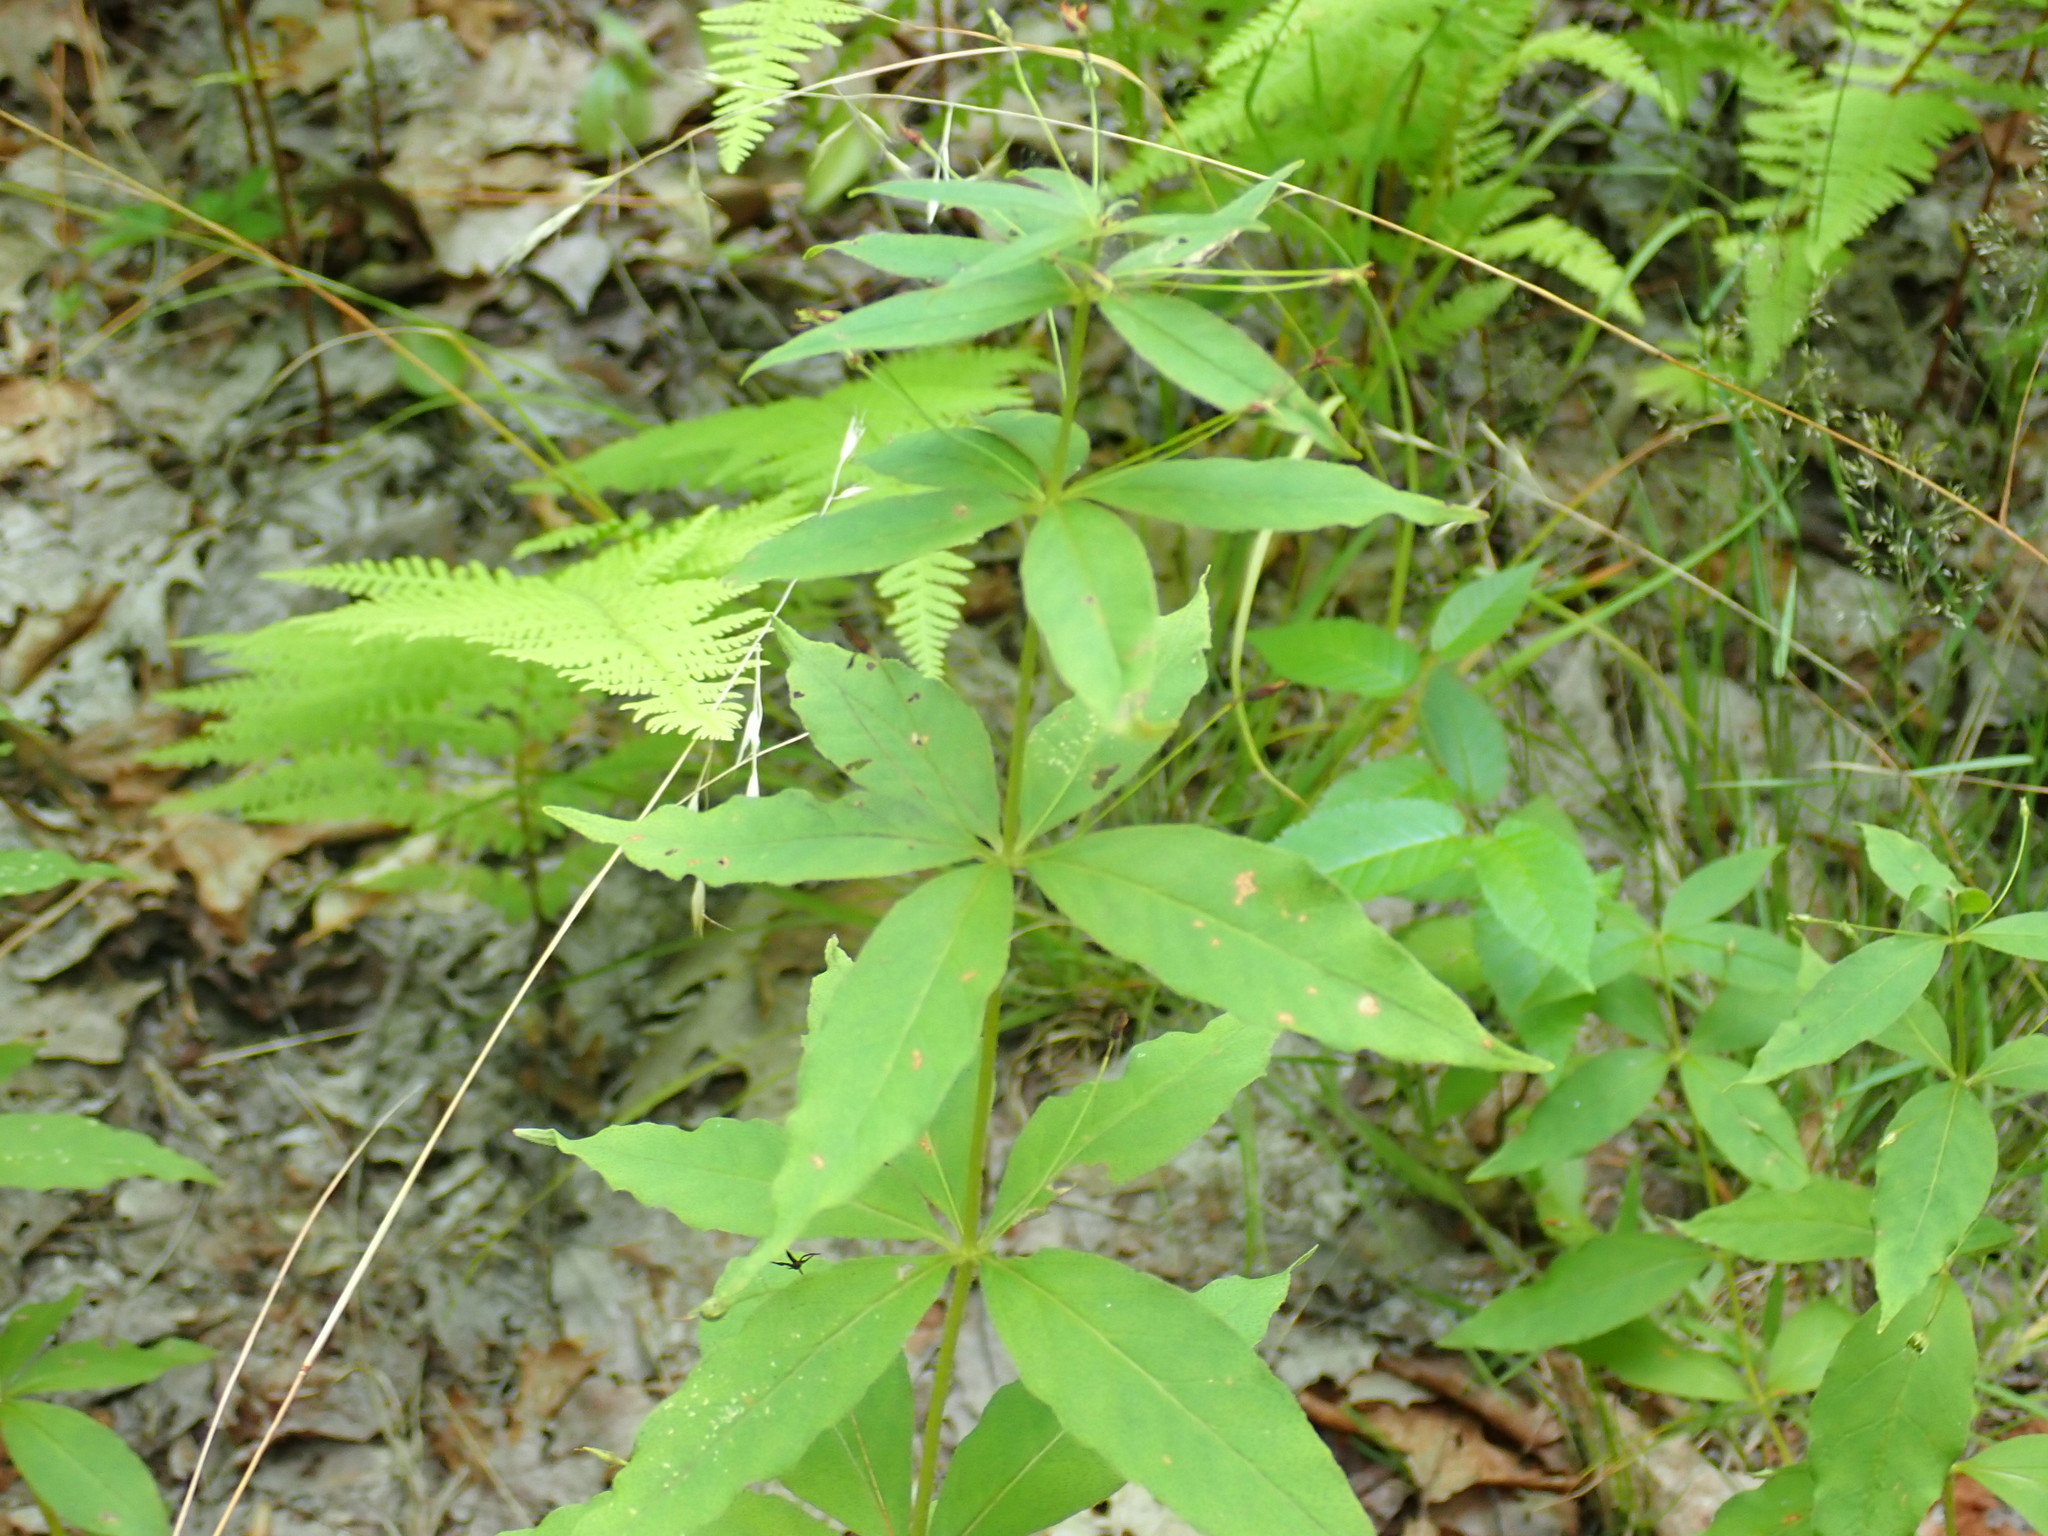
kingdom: Plantae
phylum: Tracheophyta
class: Magnoliopsida
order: Ericales
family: Primulaceae
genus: Lysimachia
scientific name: Lysimachia quadrifolia
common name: Whorled loosestrife
